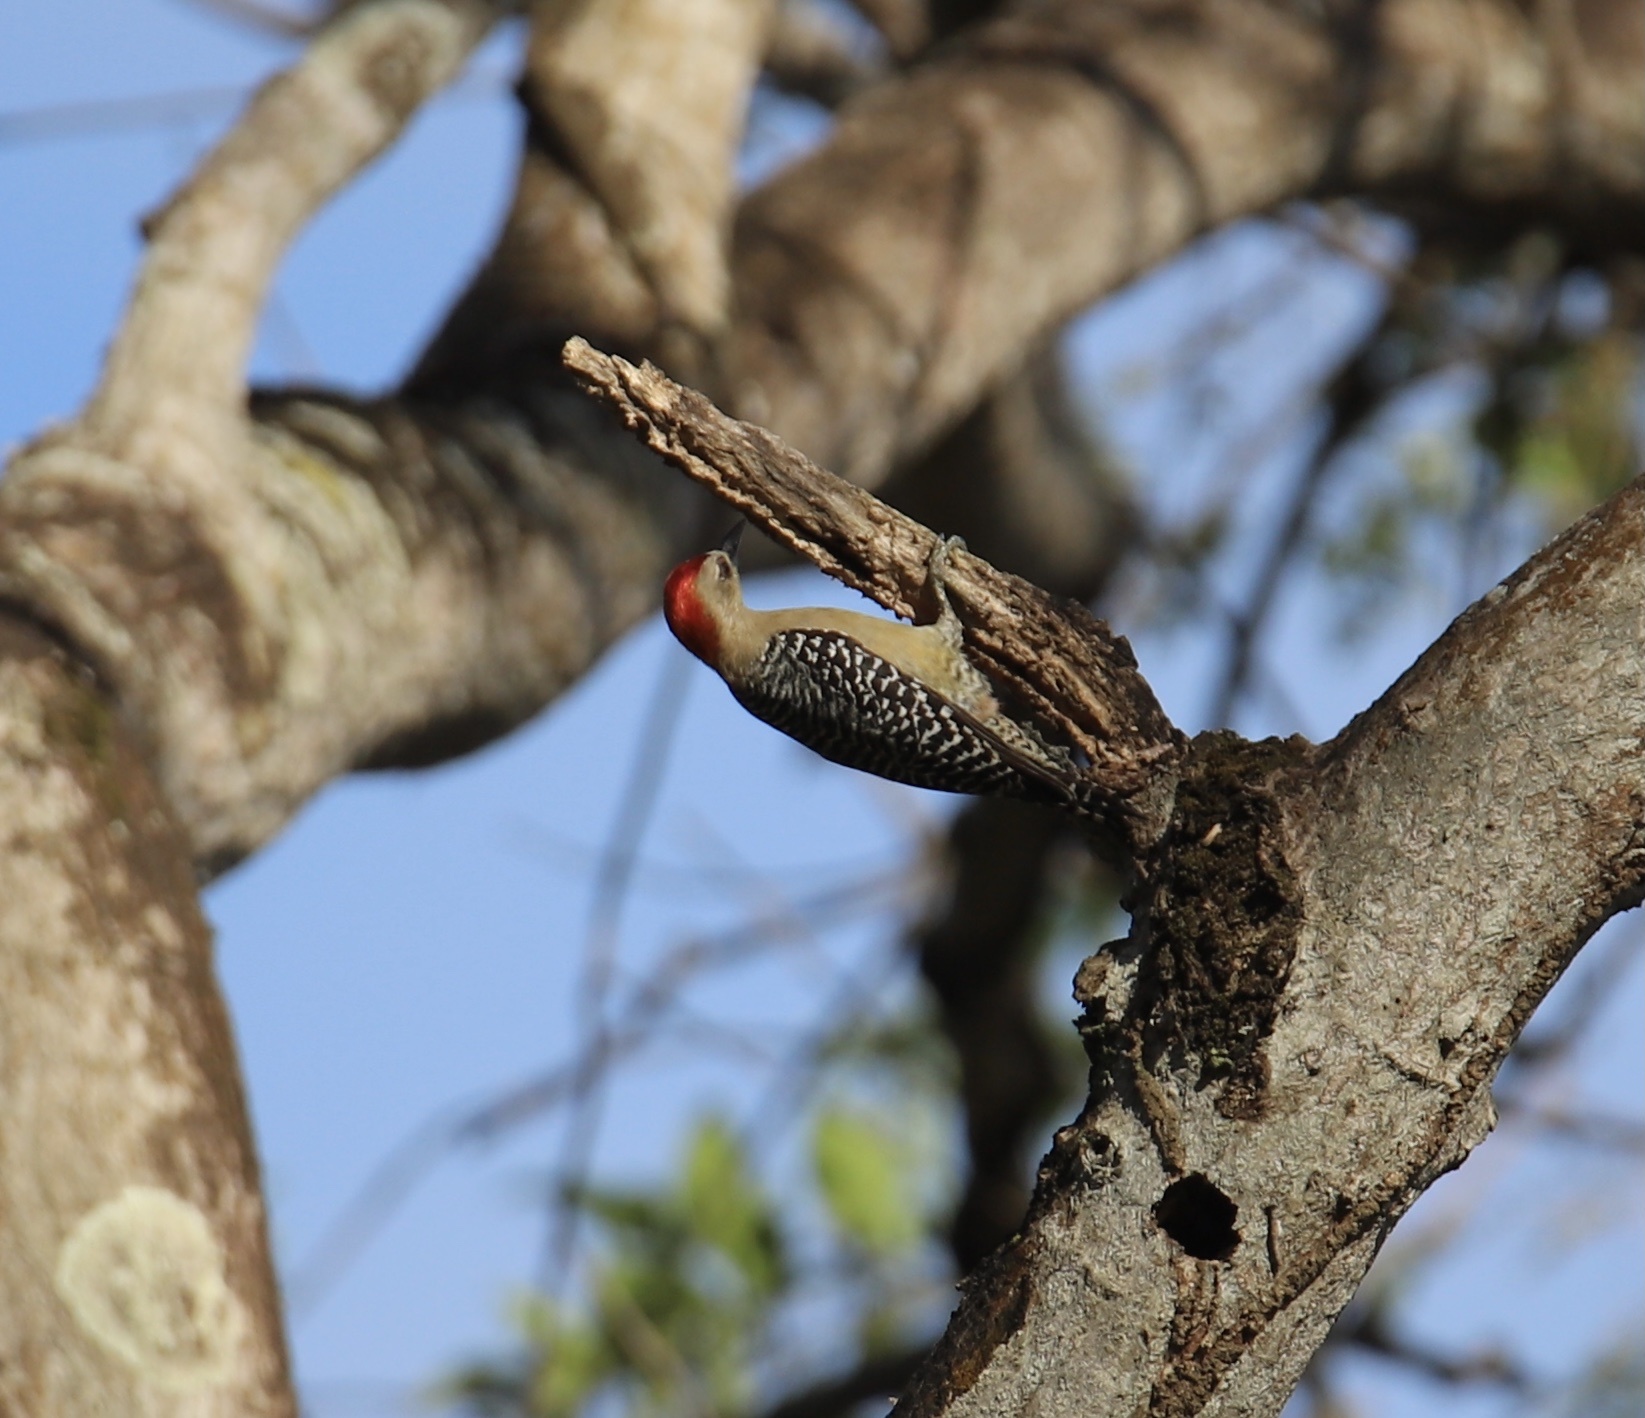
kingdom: Animalia
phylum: Chordata
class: Aves
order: Piciformes
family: Picidae
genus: Melanerpes
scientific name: Melanerpes rubricapillus
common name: Red-crowned woodpecker
